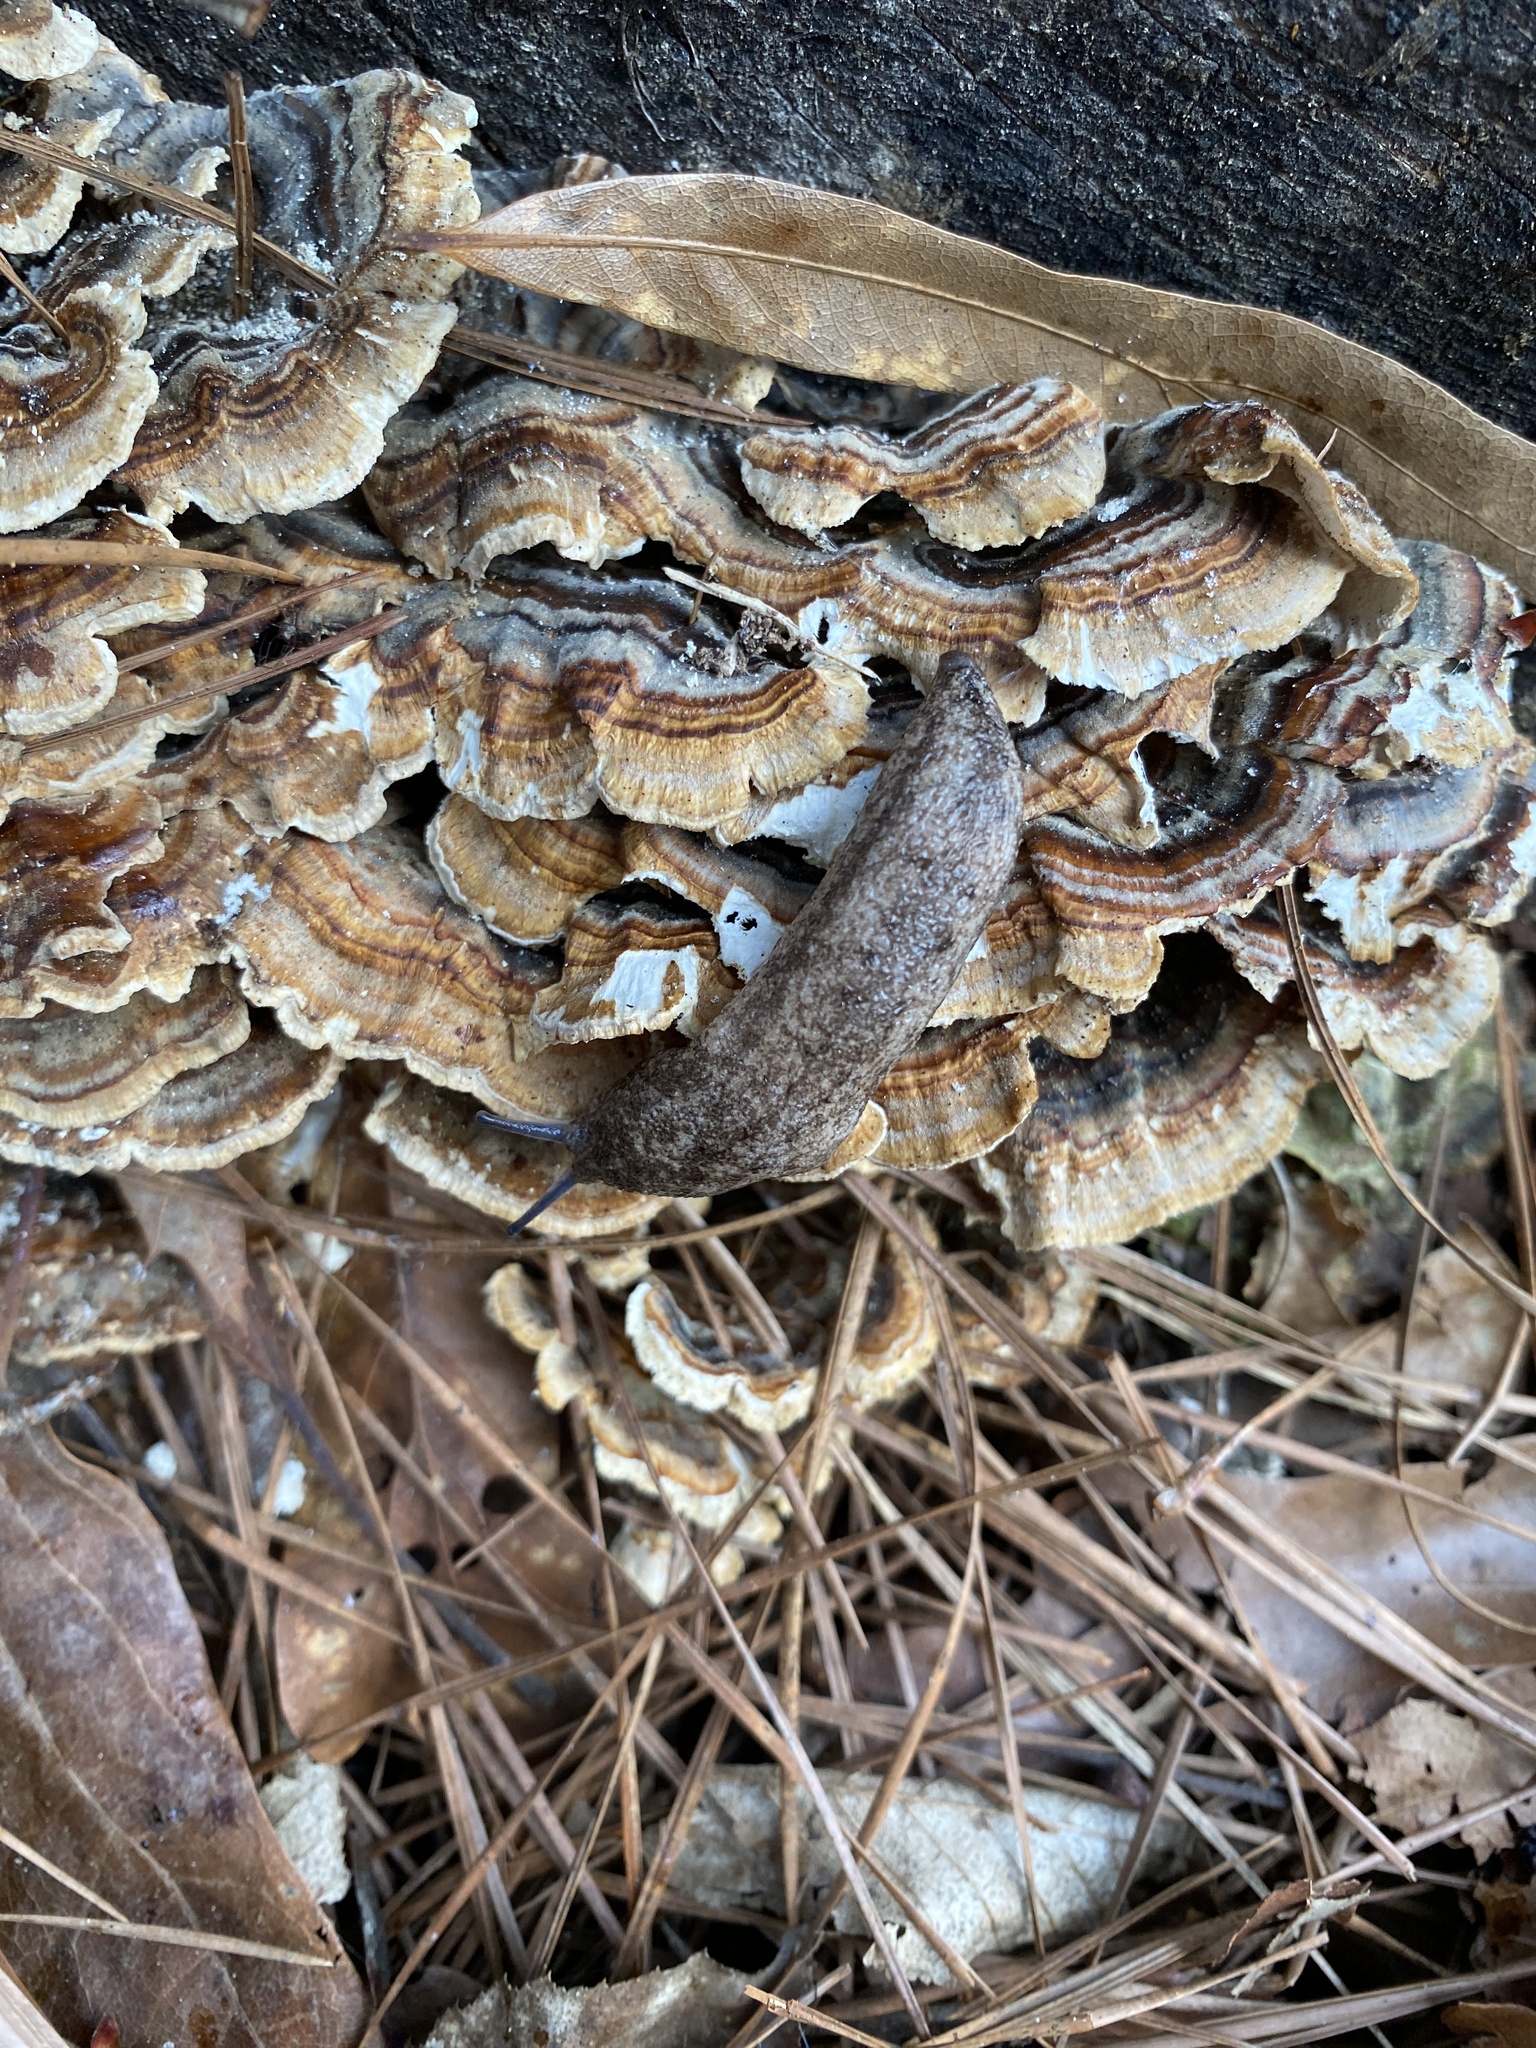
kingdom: Animalia
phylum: Mollusca
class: Gastropoda
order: Stylommatophora
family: Philomycidae
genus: Philomycus
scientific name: Philomycus carolinianus
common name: Carolina mantleslug
